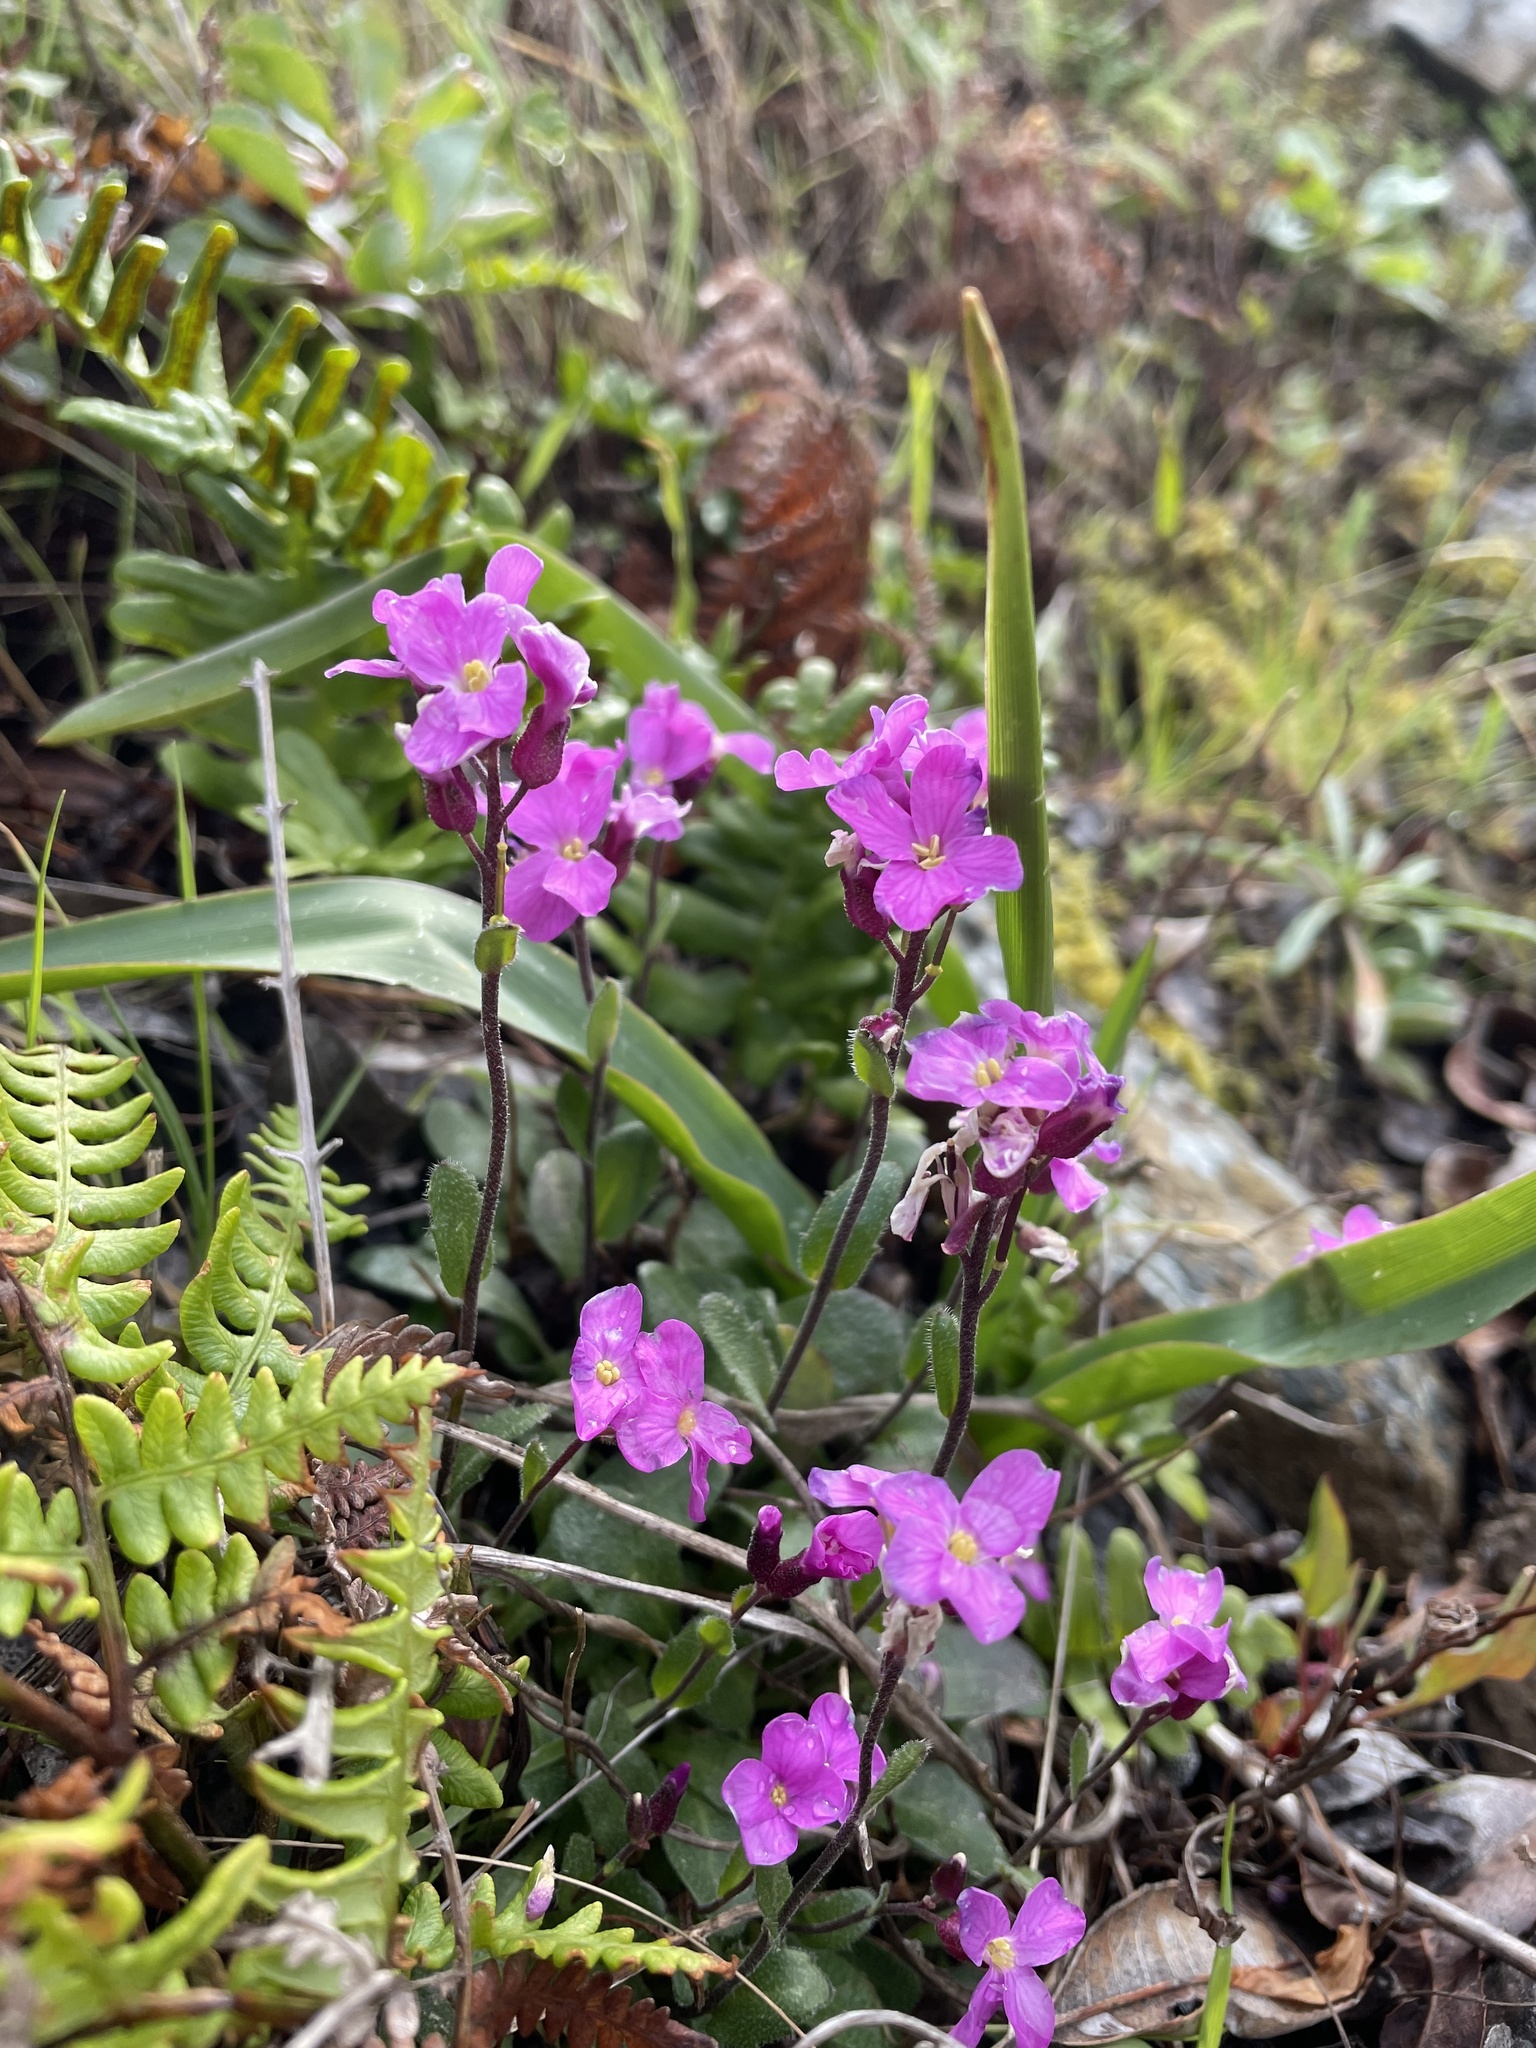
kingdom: Plantae
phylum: Tracheophyta
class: Magnoliopsida
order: Brassicales
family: Brassicaceae
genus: Arabis
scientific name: Arabis blepharophylla
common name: Rose rockcress
